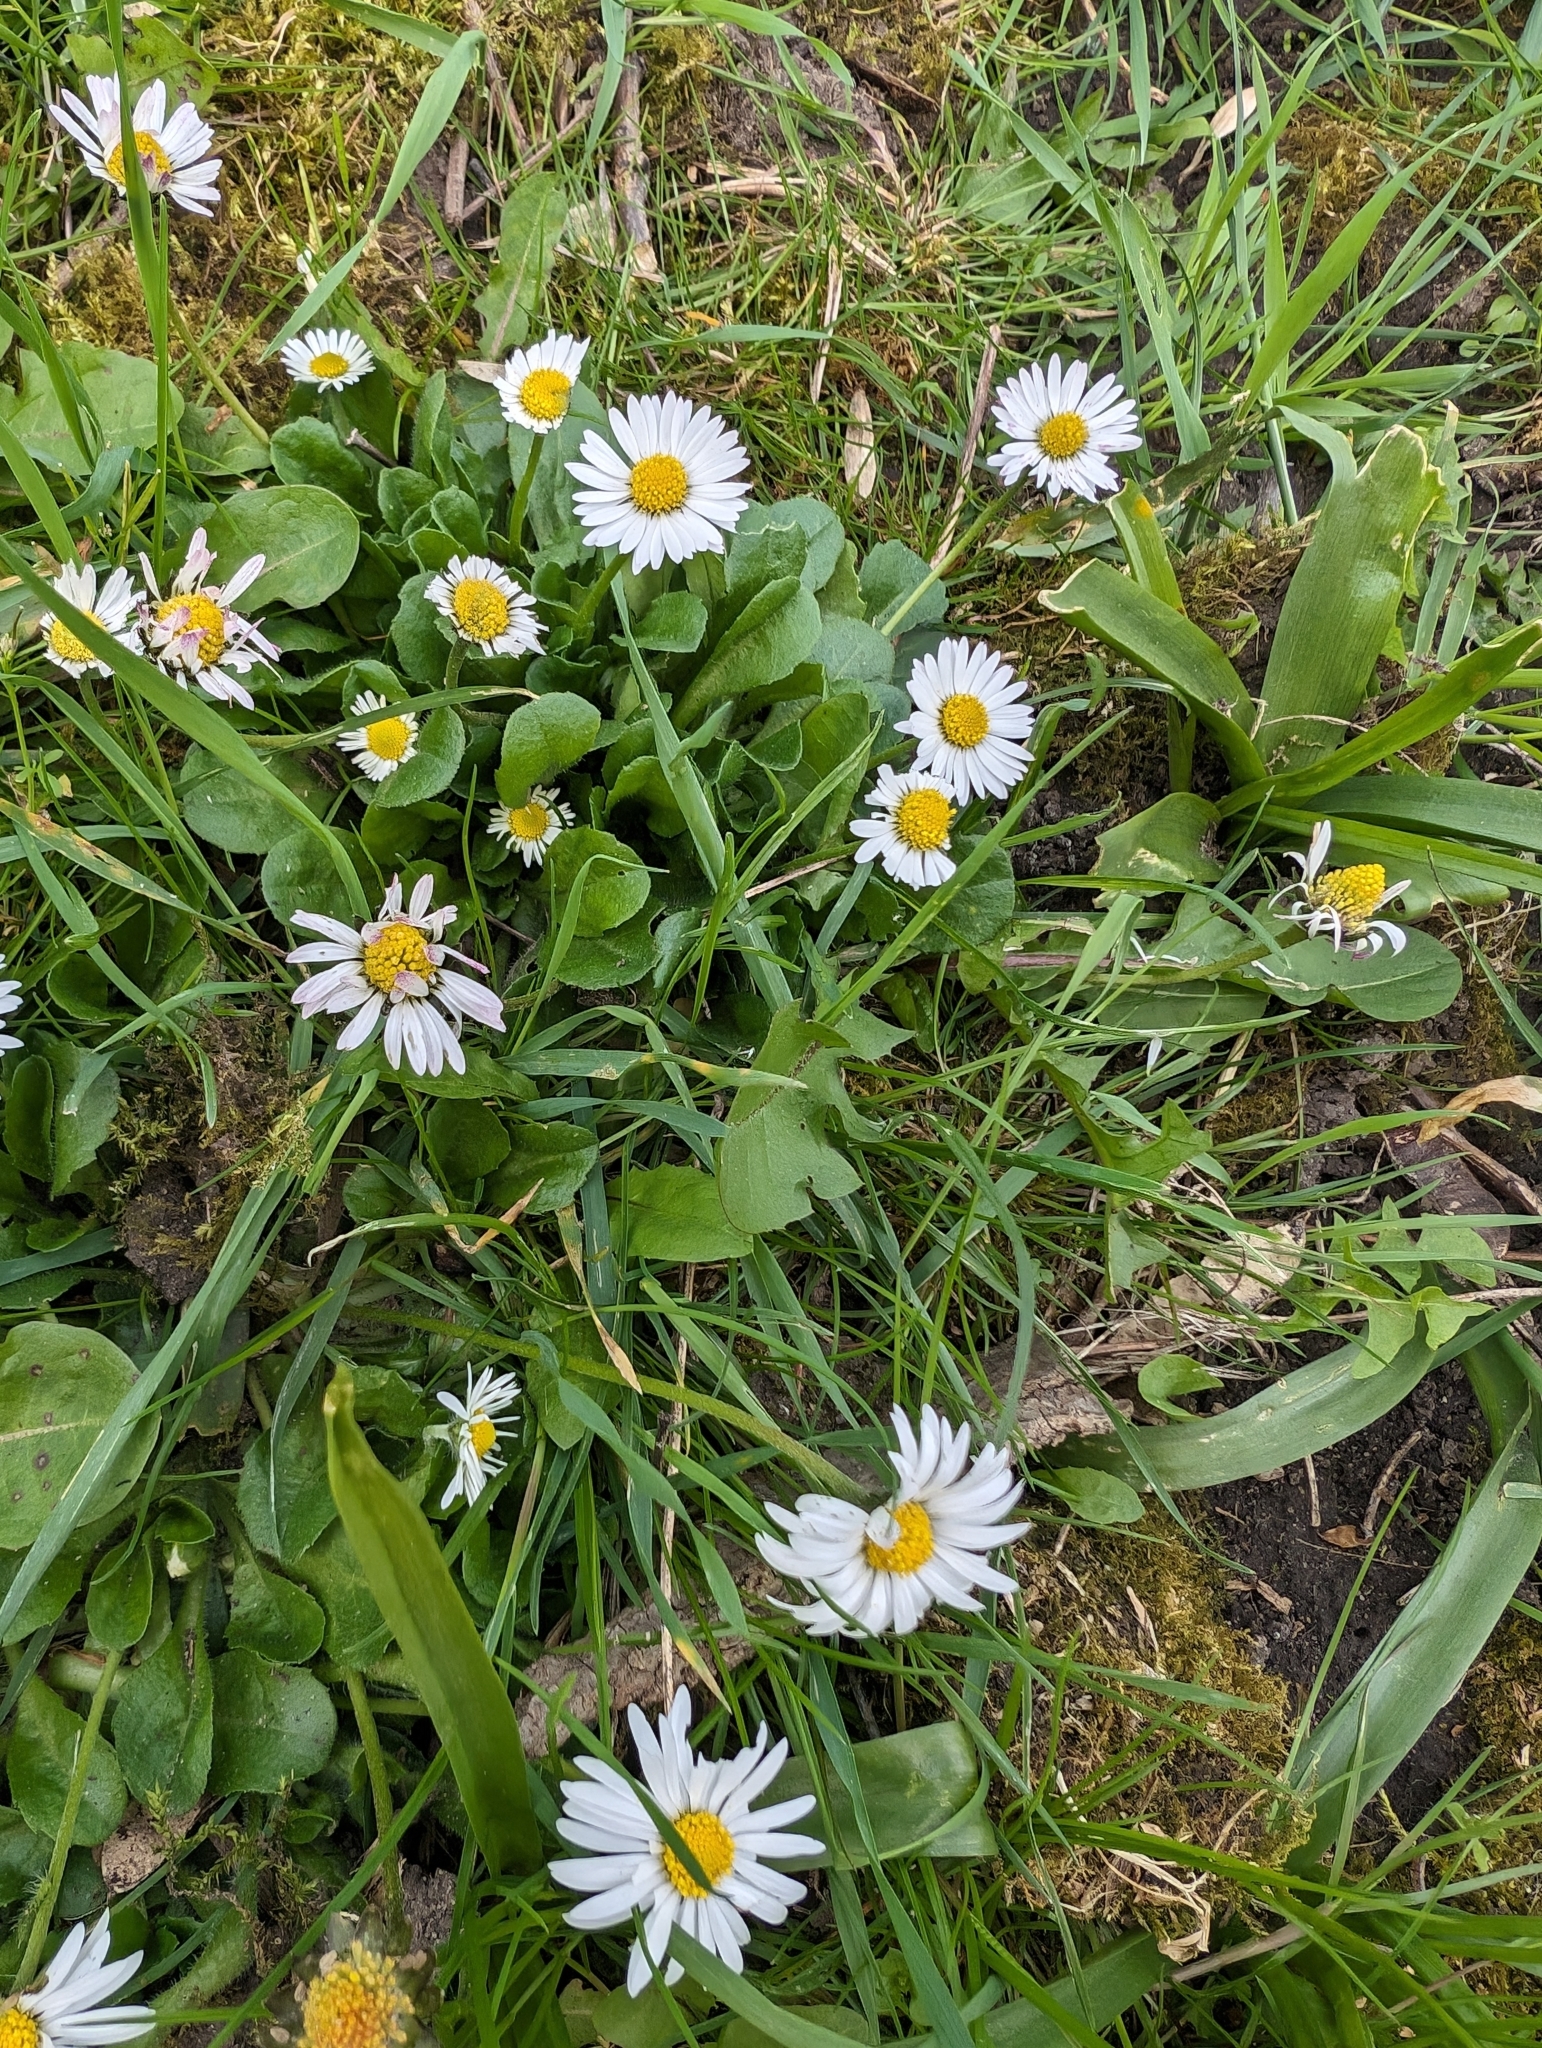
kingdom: Plantae
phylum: Tracheophyta
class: Magnoliopsida
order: Asterales
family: Asteraceae
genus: Bellis
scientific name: Bellis perennis
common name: Lawndaisy
